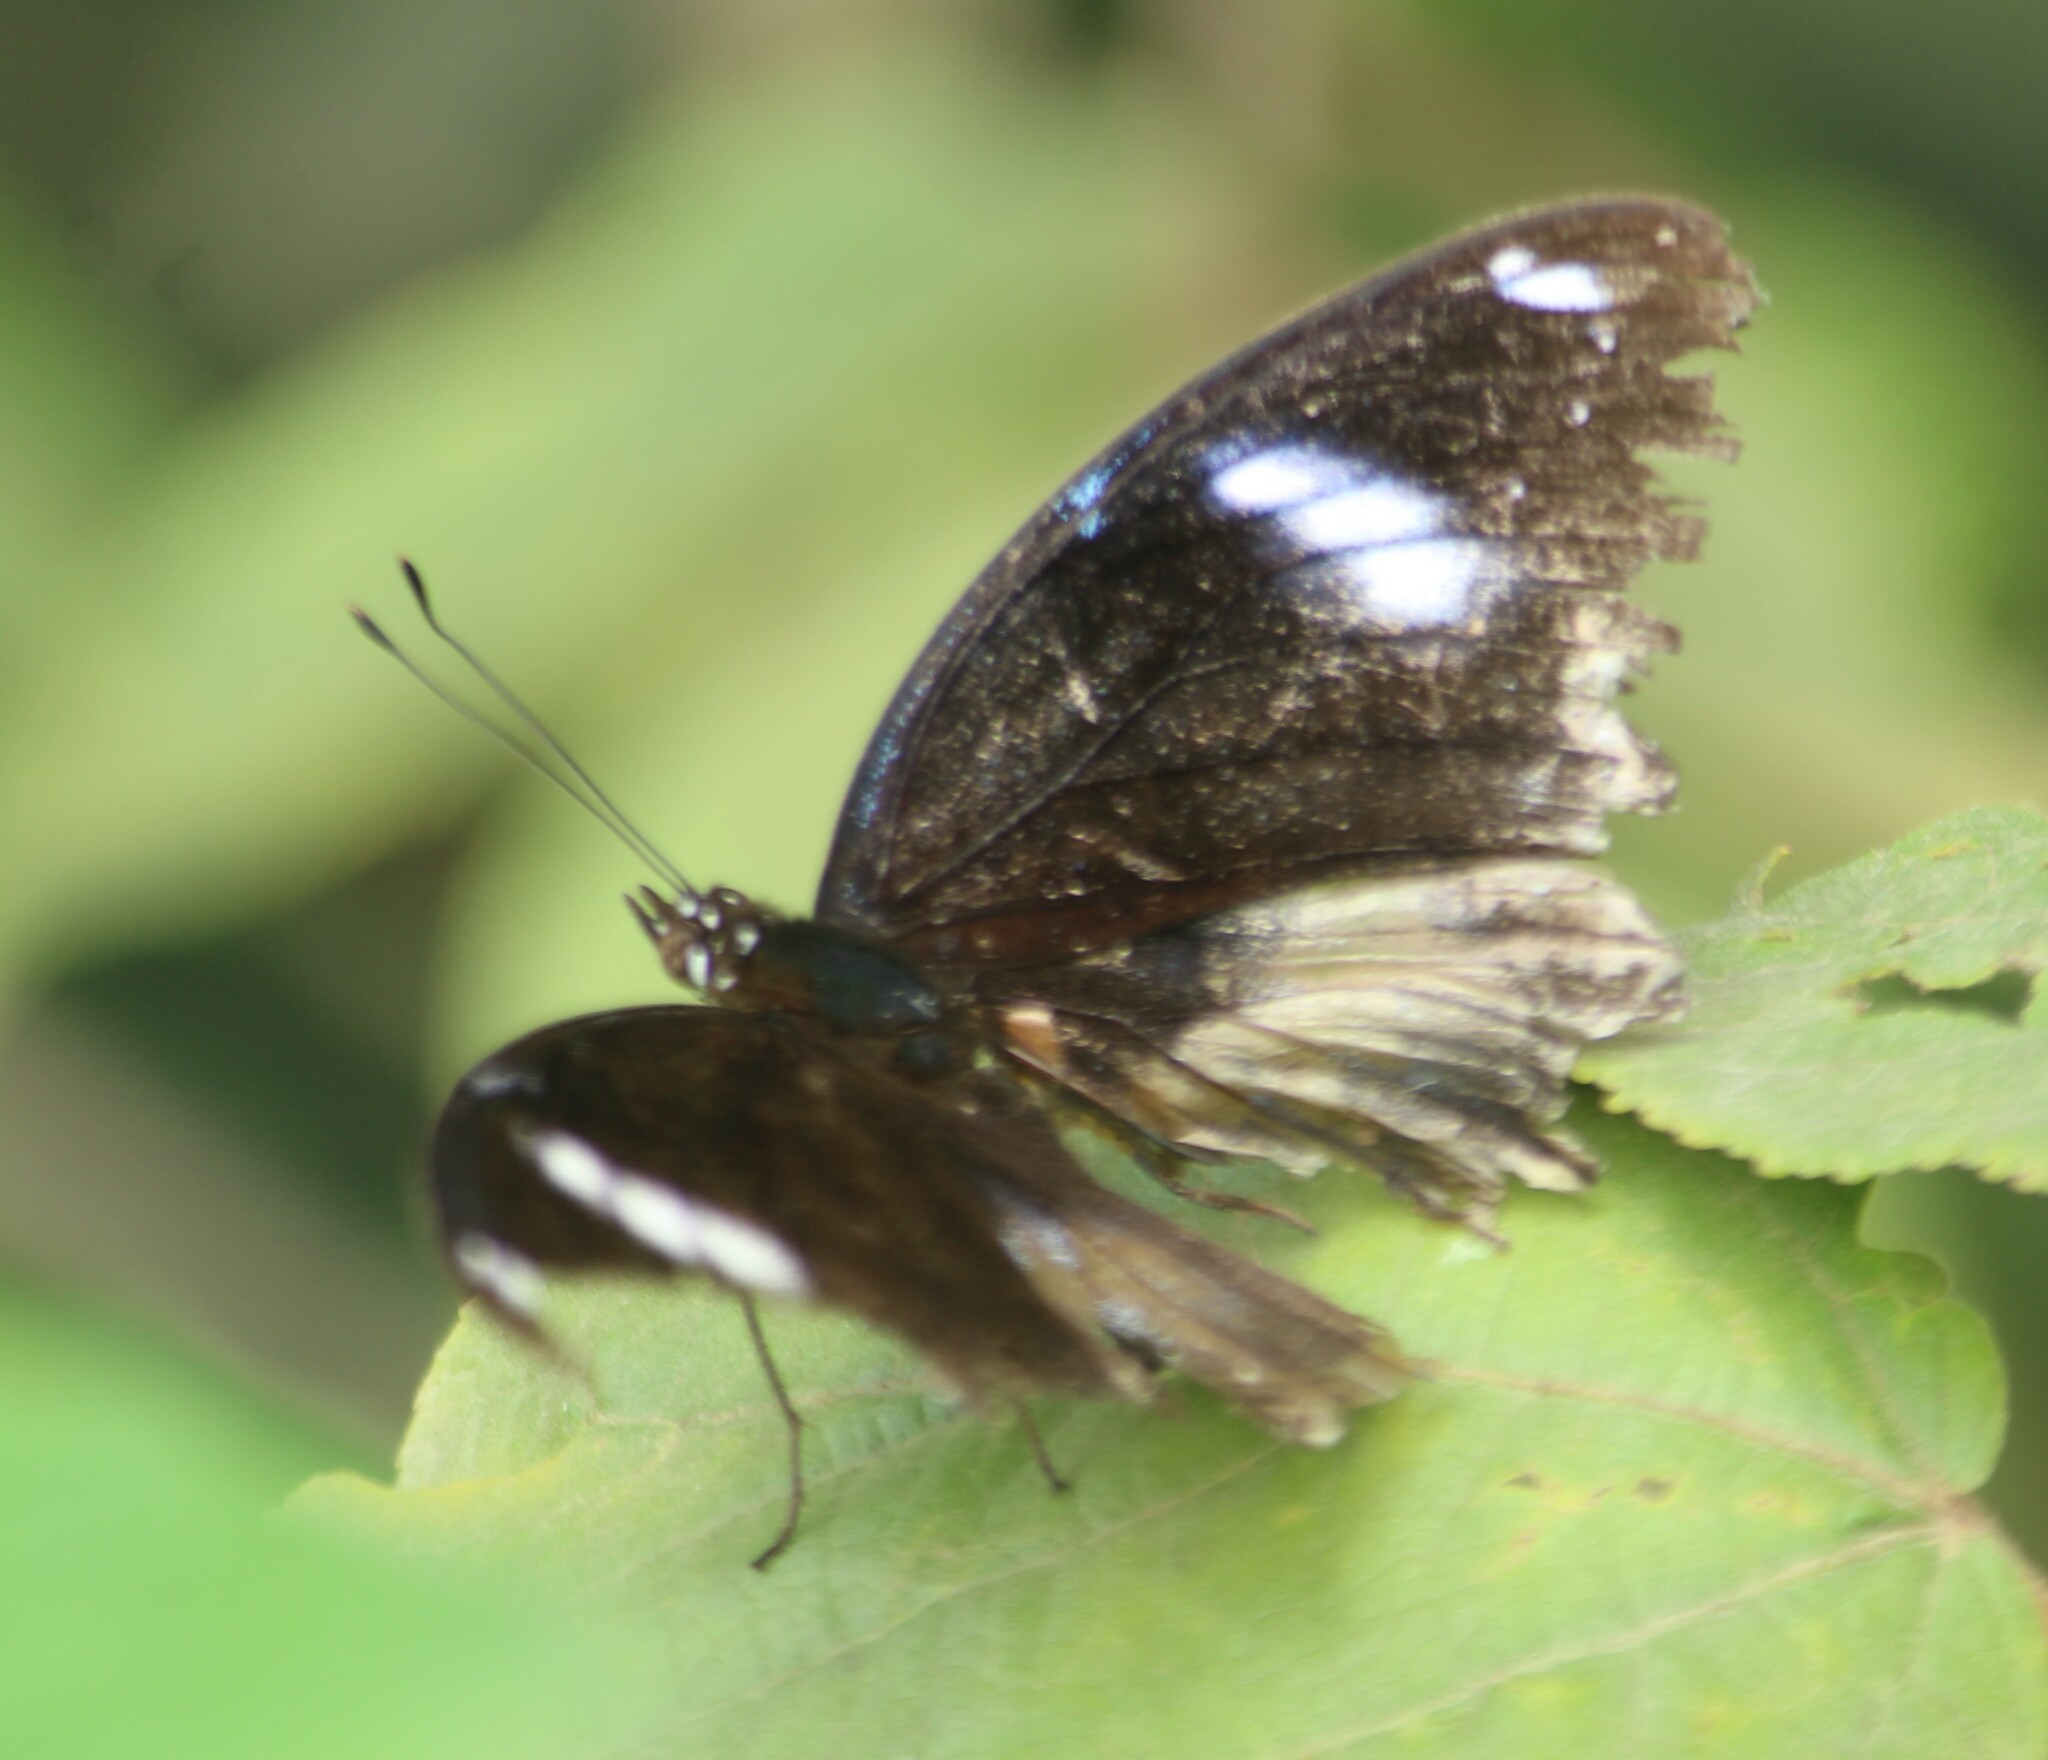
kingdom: Animalia
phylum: Arthropoda
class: Insecta
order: Lepidoptera
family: Nymphalidae
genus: Hypolimnas
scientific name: Hypolimnas bolina
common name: Great eggfly
